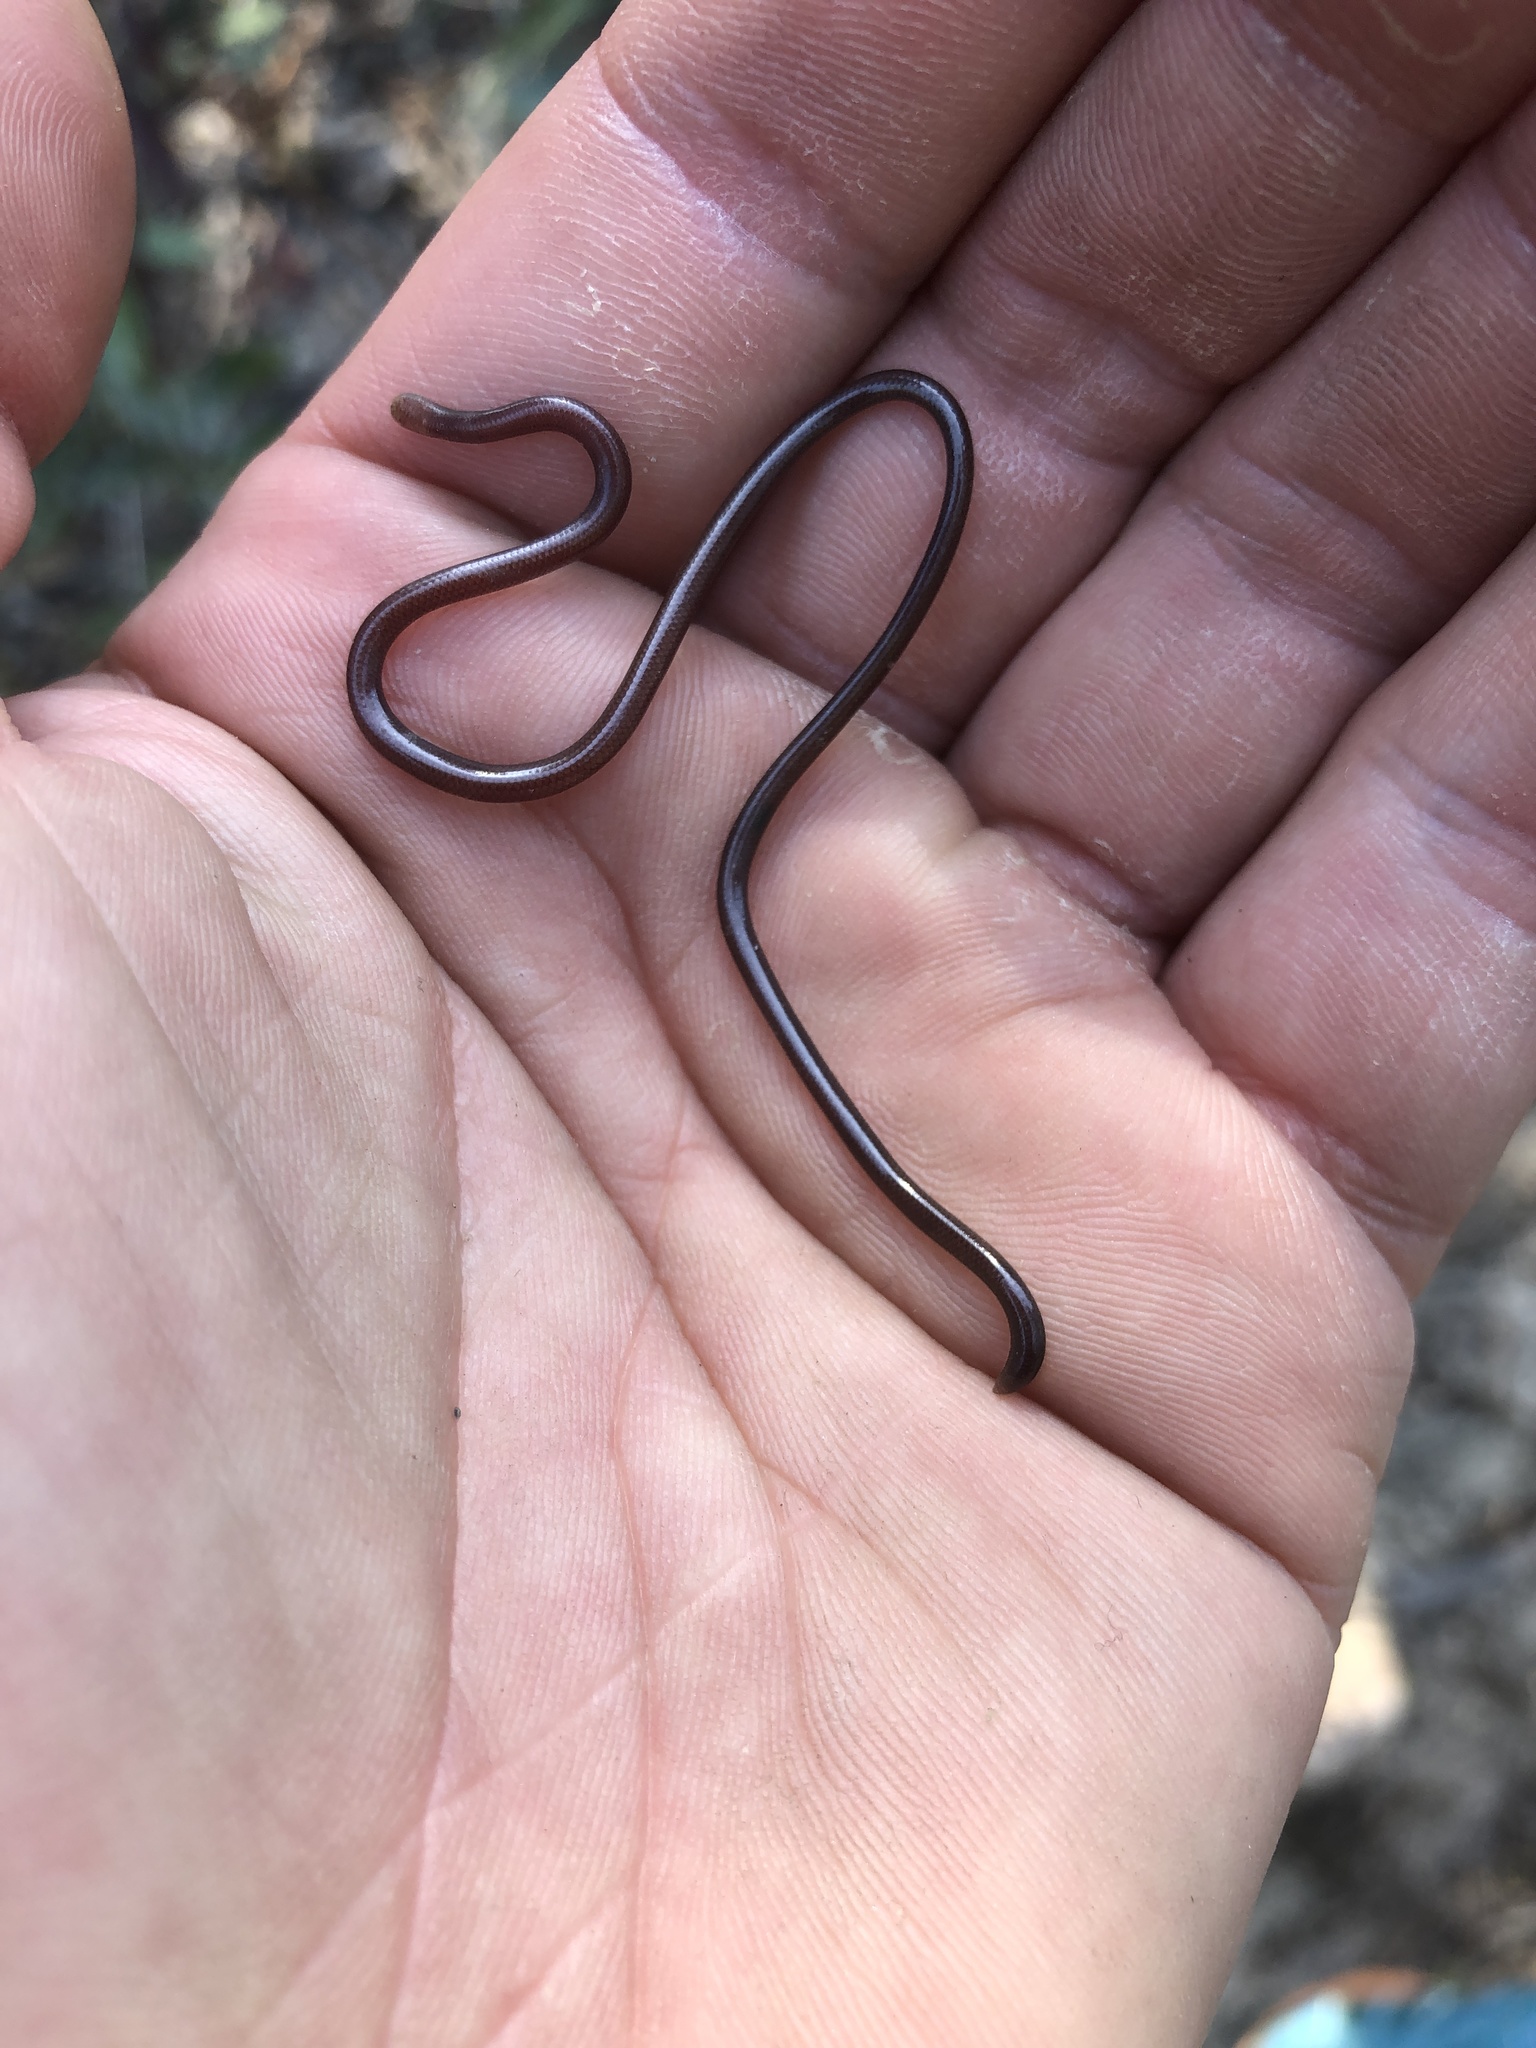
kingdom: Animalia
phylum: Chordata
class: Squamata
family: Typhlopidae
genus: Indotyphlops
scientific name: Indotyphlops albiceps
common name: White-headed blind snake
